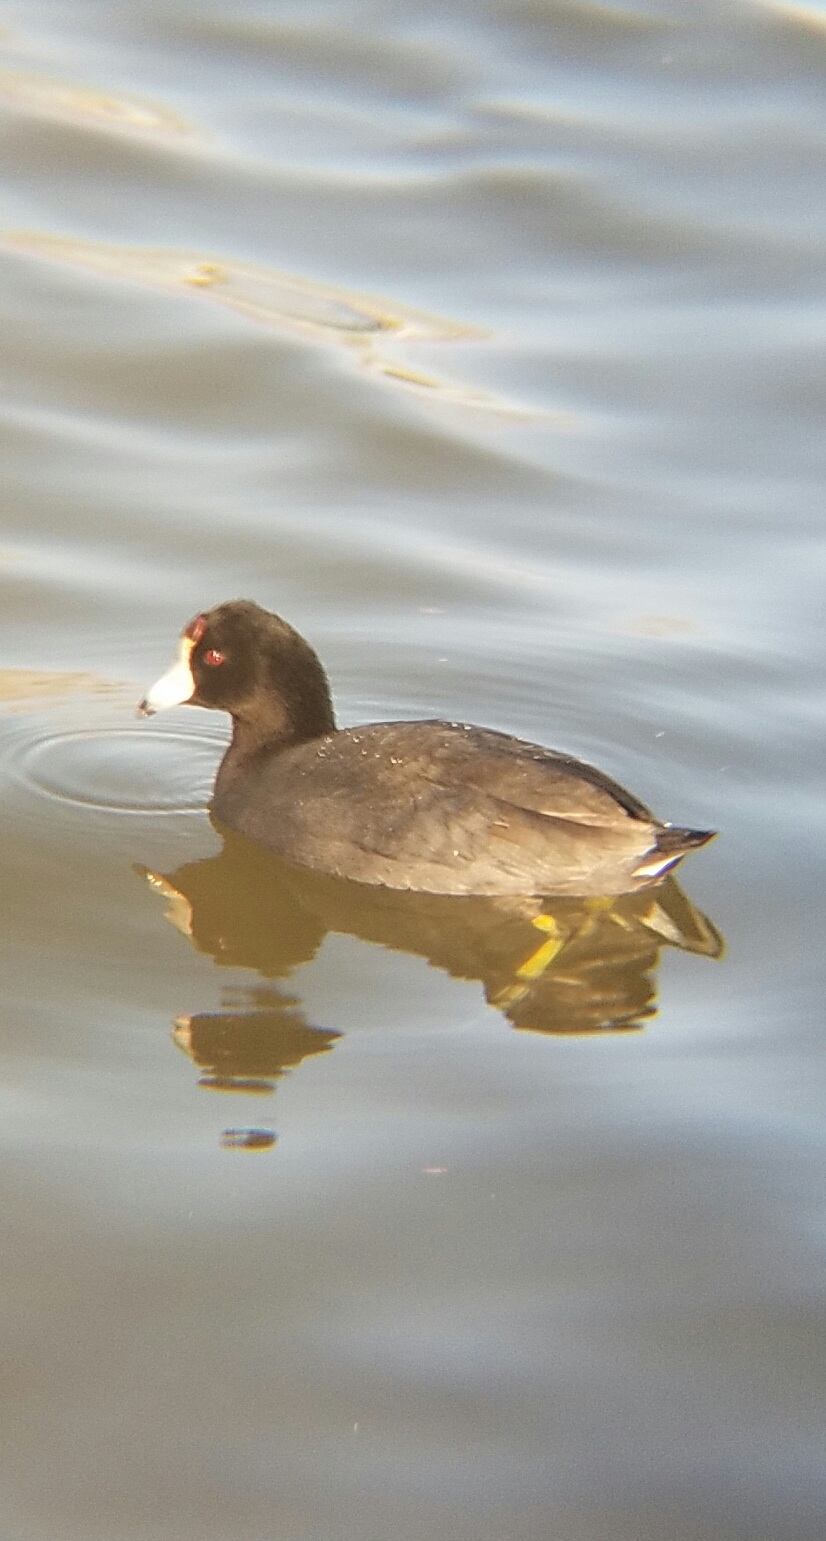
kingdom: Animalia
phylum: Chordata
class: Aves
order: Gruiformes
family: Rallidae
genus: Fulica
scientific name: Fulica americana
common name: American coot
